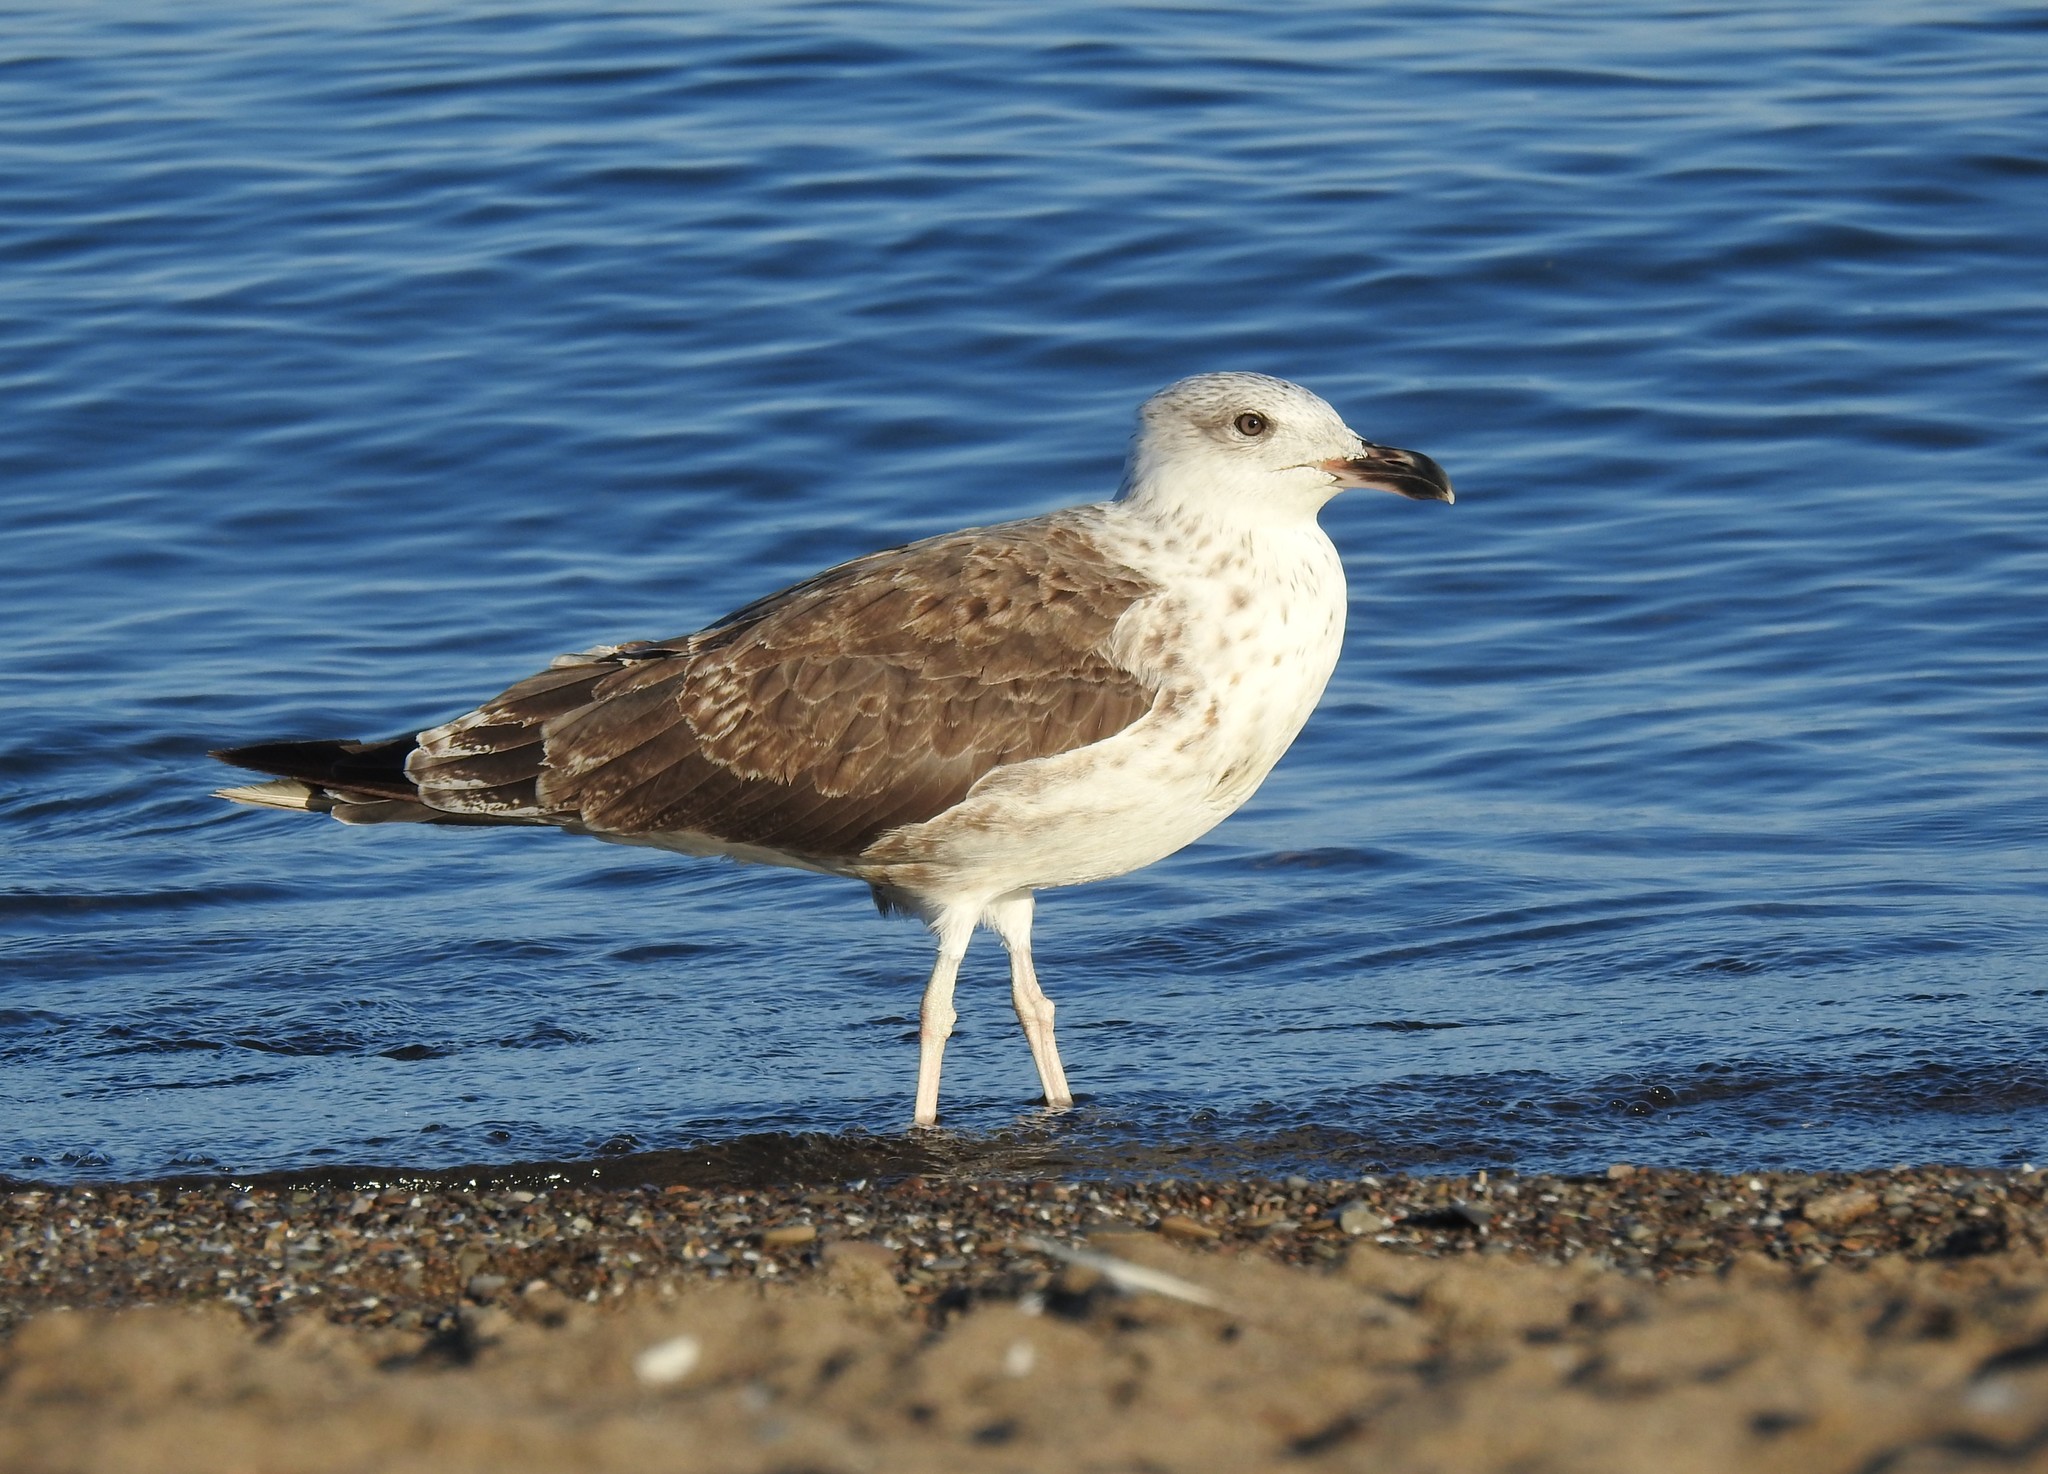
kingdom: Animalia
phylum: Chordata
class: Aves
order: Charadriiformes
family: Laridae
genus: Larus
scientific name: Larus fuscus
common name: Lesser black-backed gull
